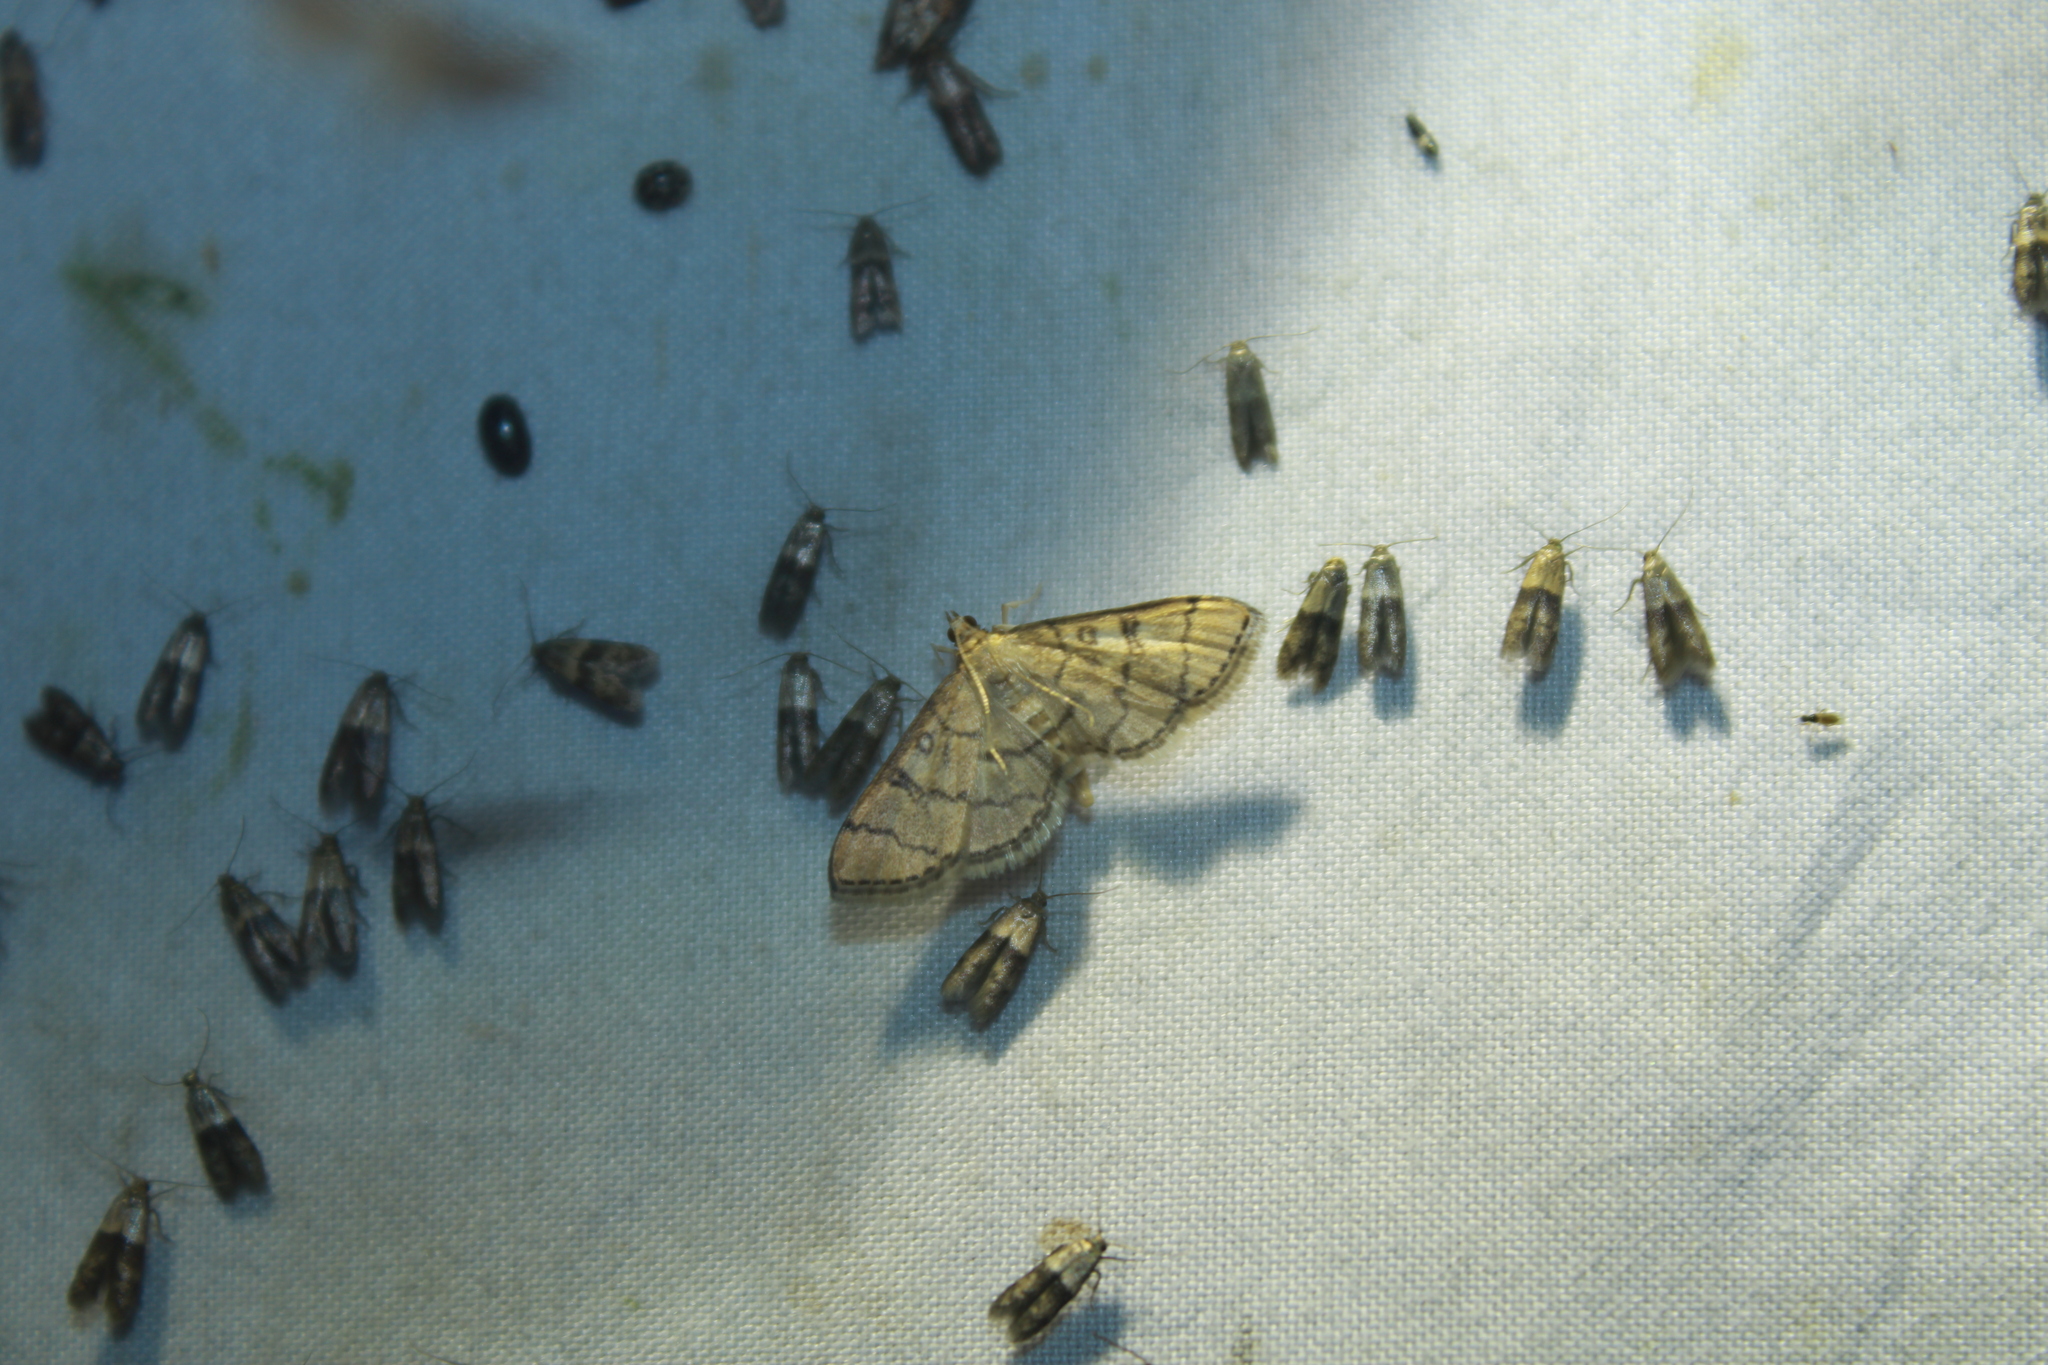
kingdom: Animalia
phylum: Arthropoda
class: Insecta
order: Lepidoptera
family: Crambidae
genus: Lamprosema
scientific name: Lamprosema Blepharomastix ranalis
